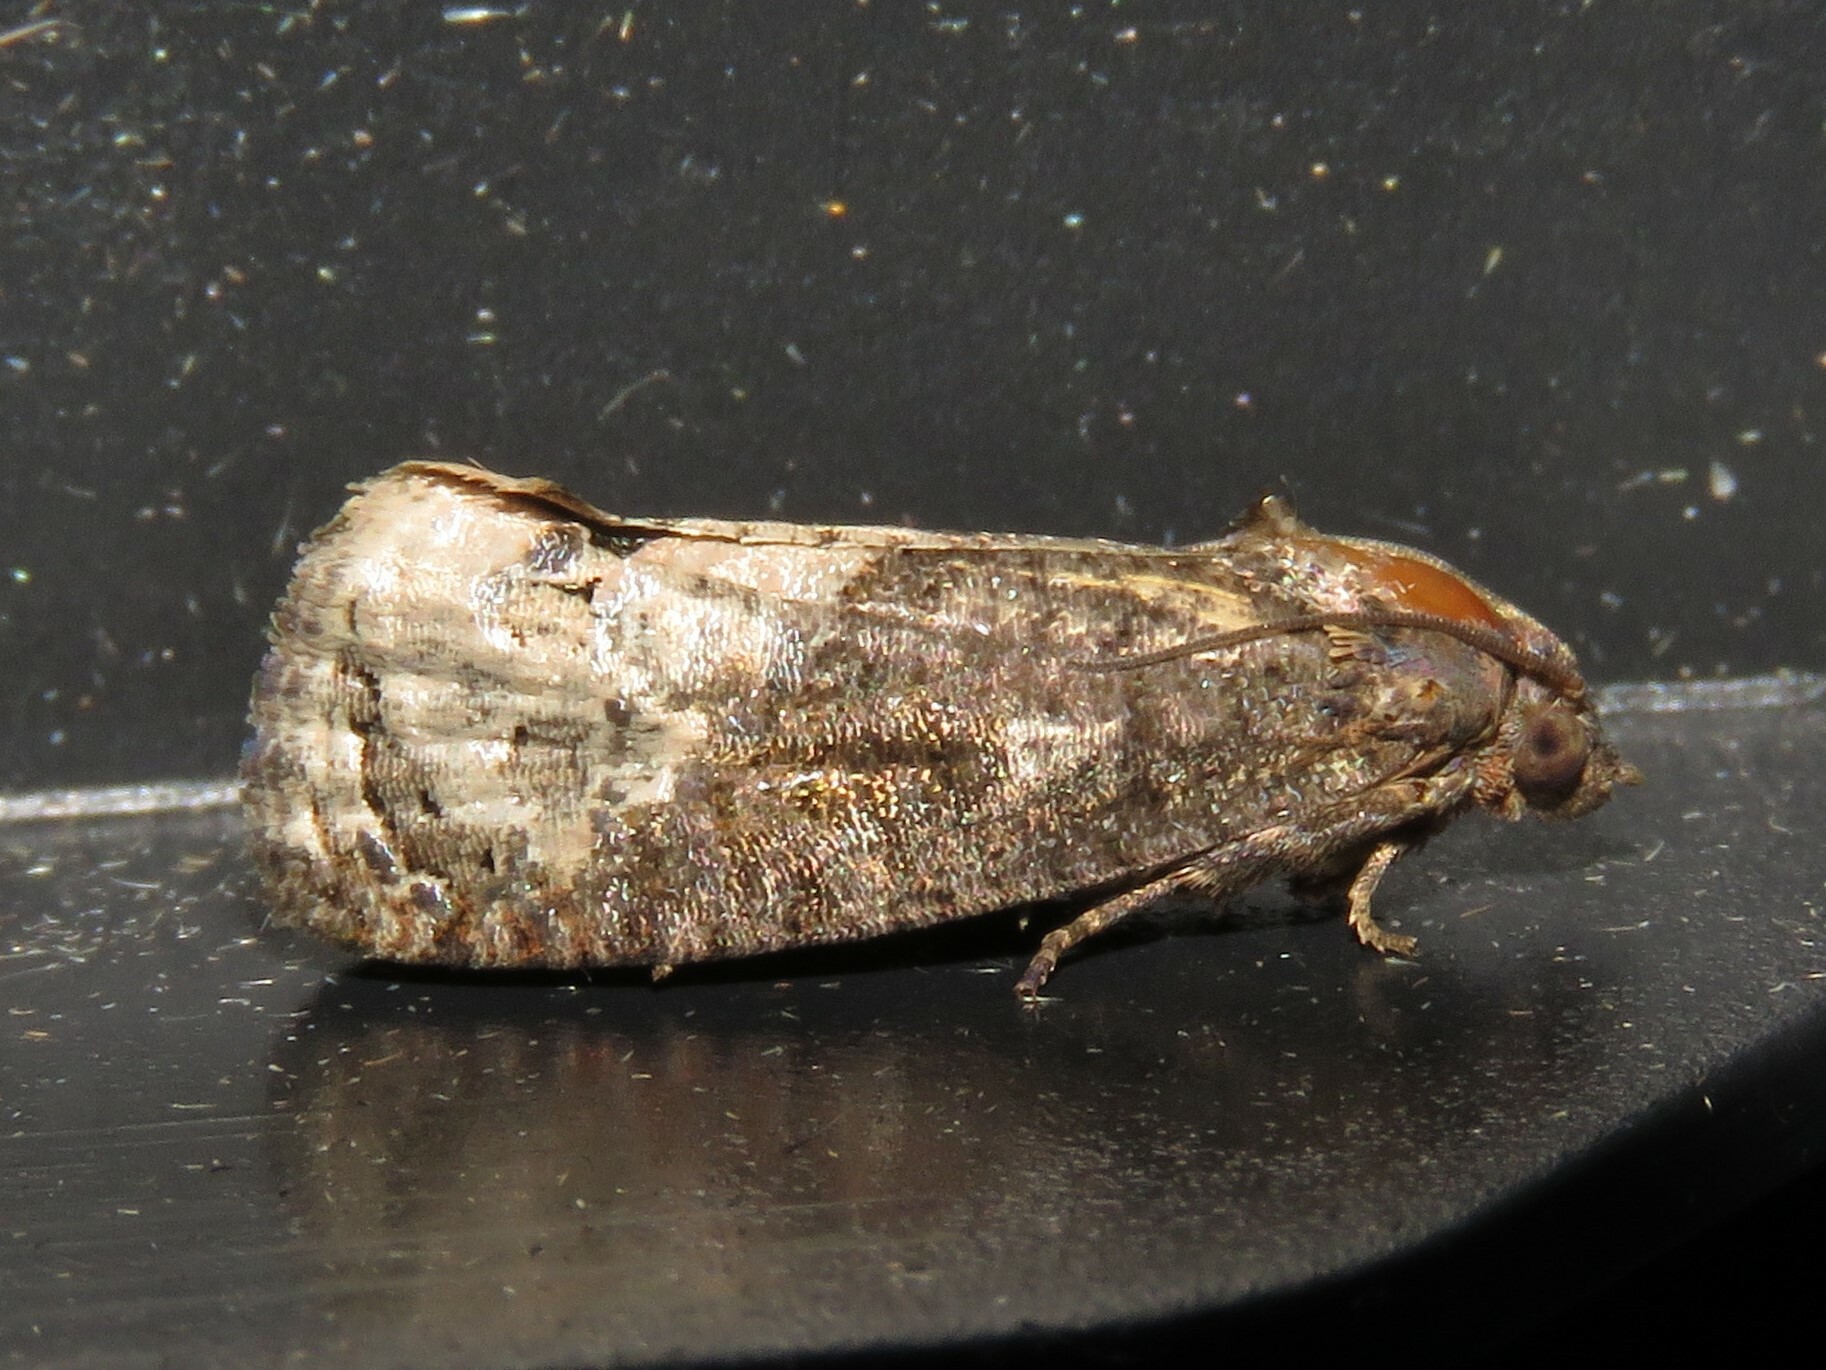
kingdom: Animalia
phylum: Arthropoda
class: Insecta
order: Lepidoptera
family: Tortricidae
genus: Ecdytolopha
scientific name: Ecdytolopha insiticiana
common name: Locust twig borer moth
